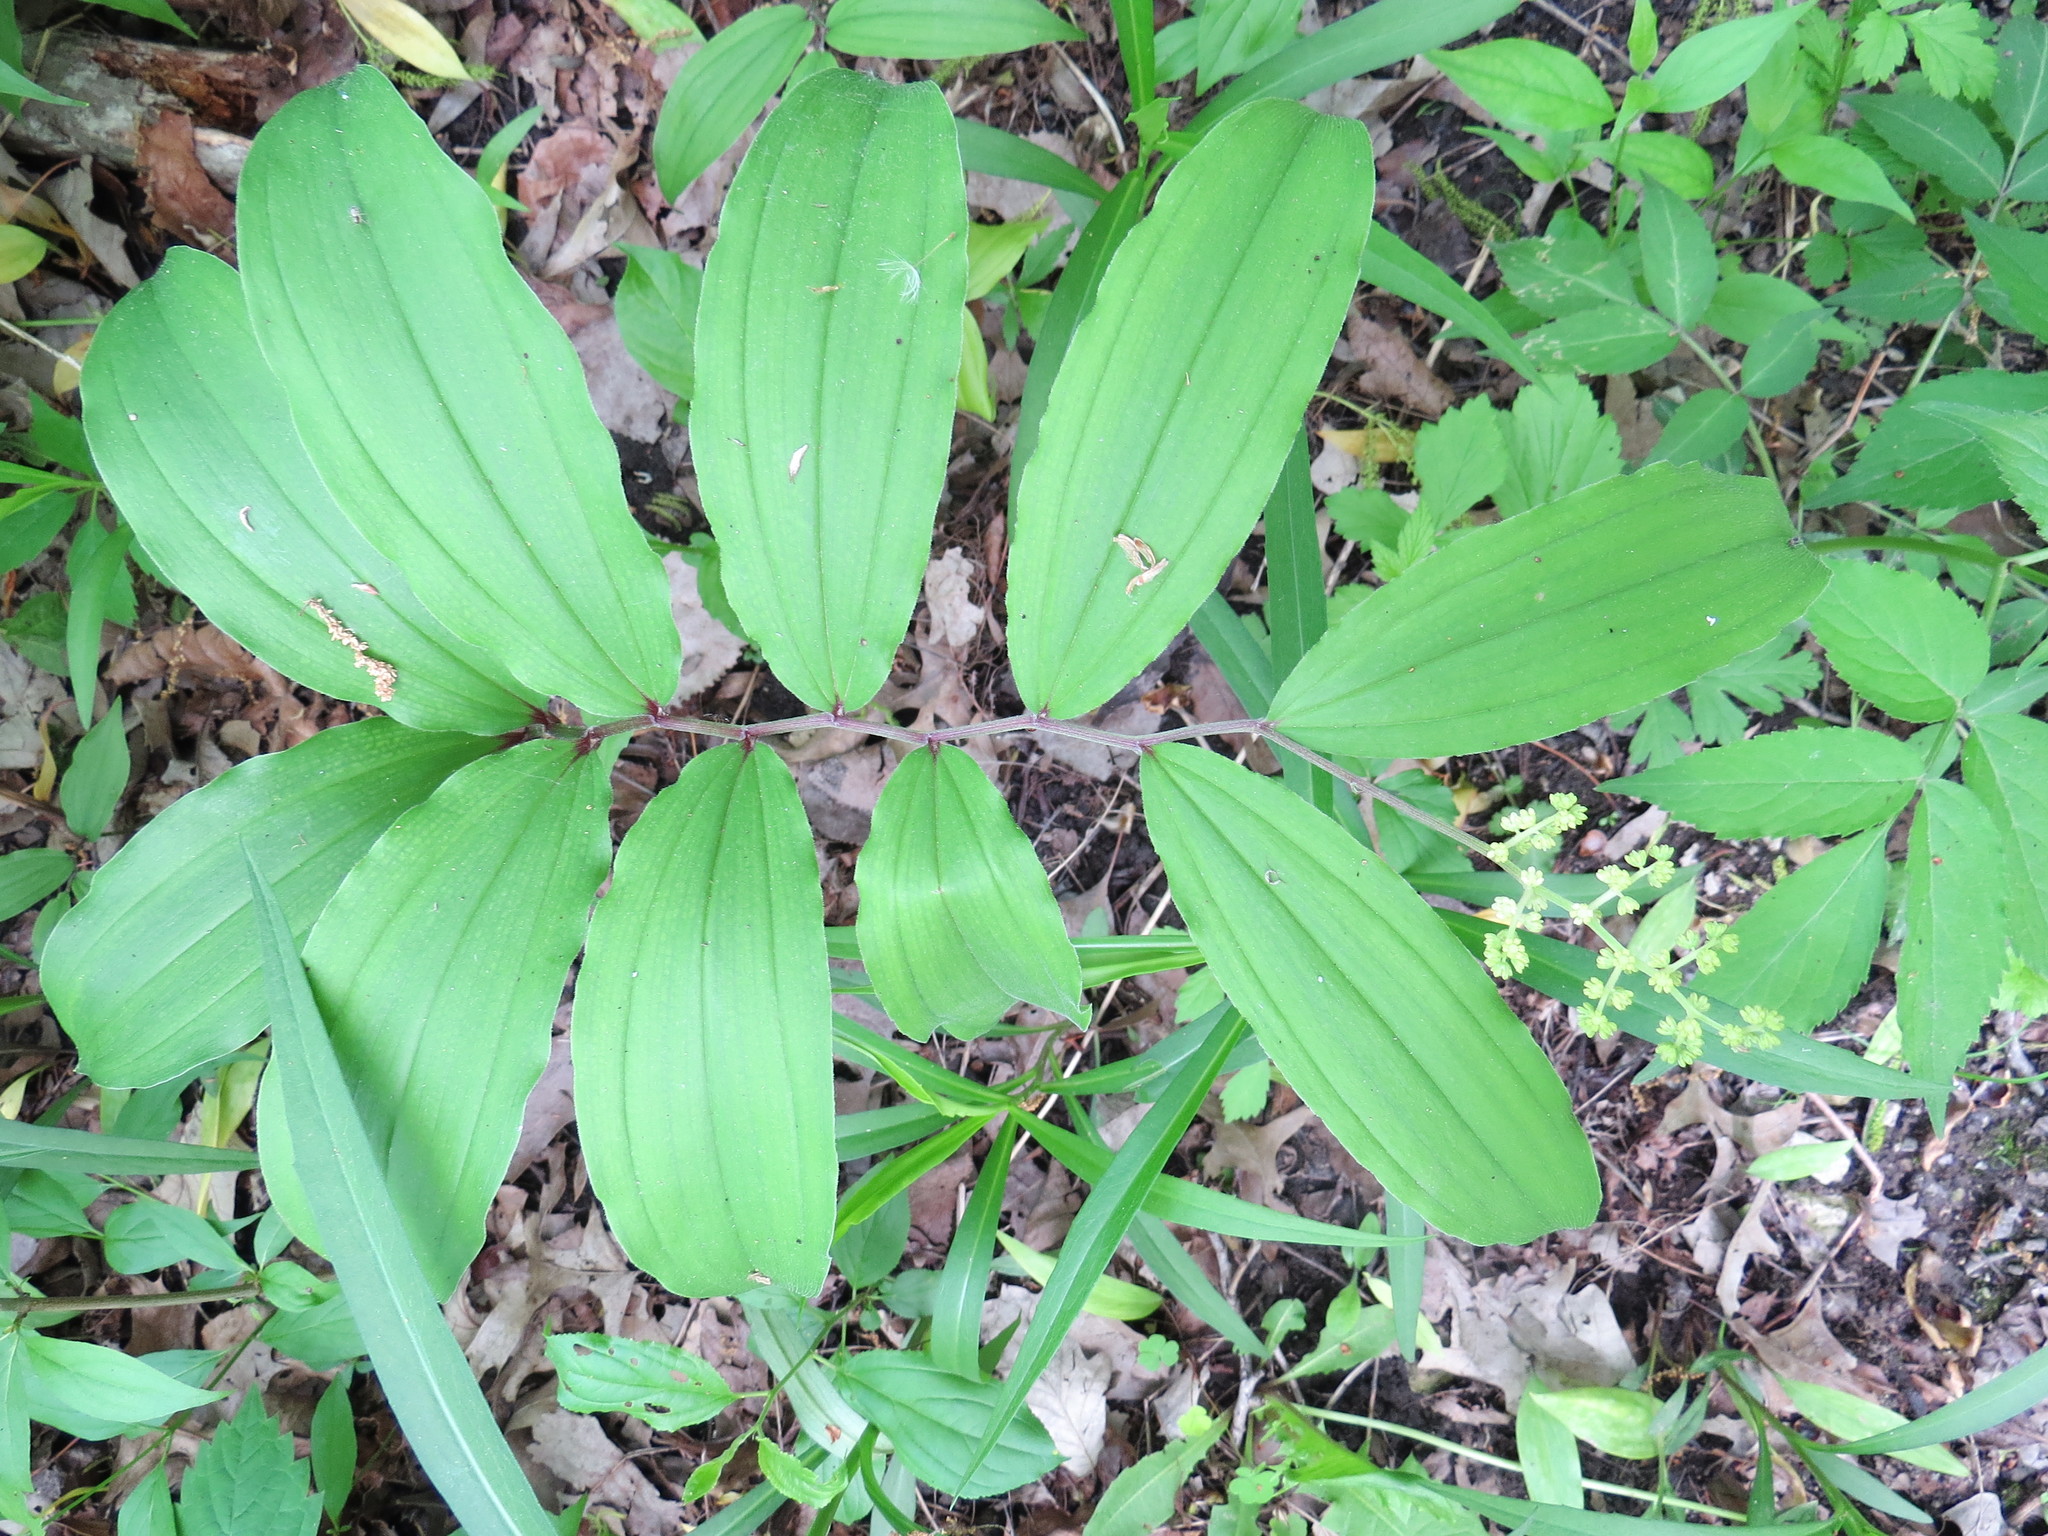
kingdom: Plantae
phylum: Tracheophyta
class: Liliopsida
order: Asparagales
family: Asparagaceae
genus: Maianthemum
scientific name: Maianthemum racemosum
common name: False spikenard
